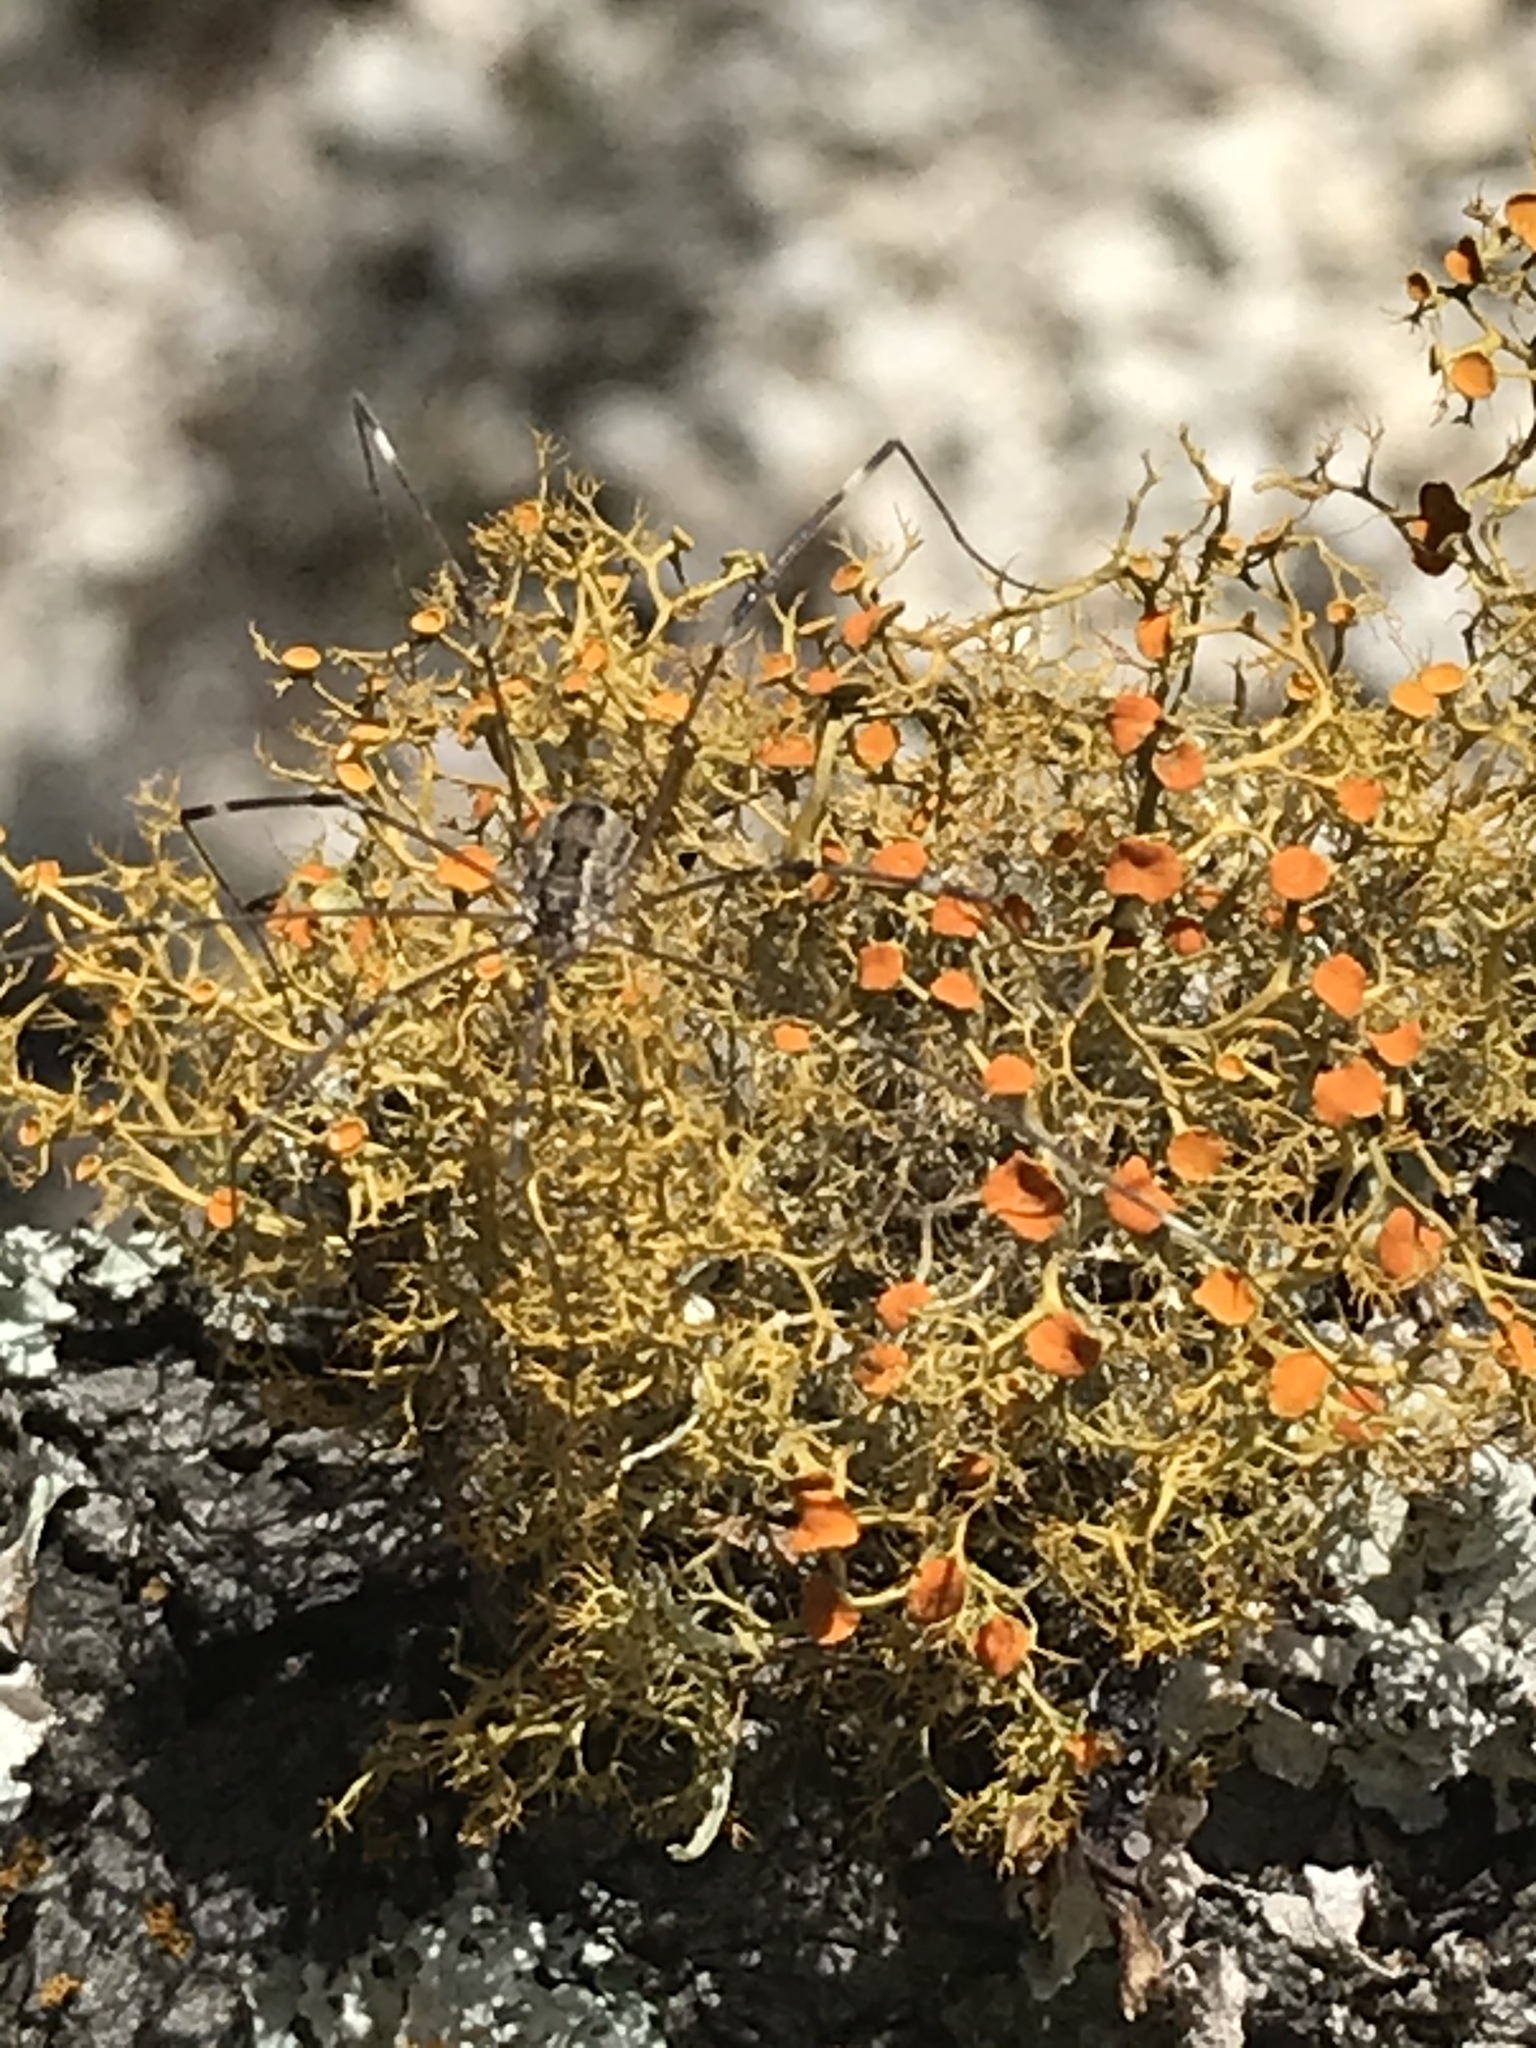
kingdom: Fungi
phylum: Ascomycota
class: Lecanoromycetes
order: Teloschistales
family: Teloschistaceae
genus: Teloschistes
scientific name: Teloschistes exilis
